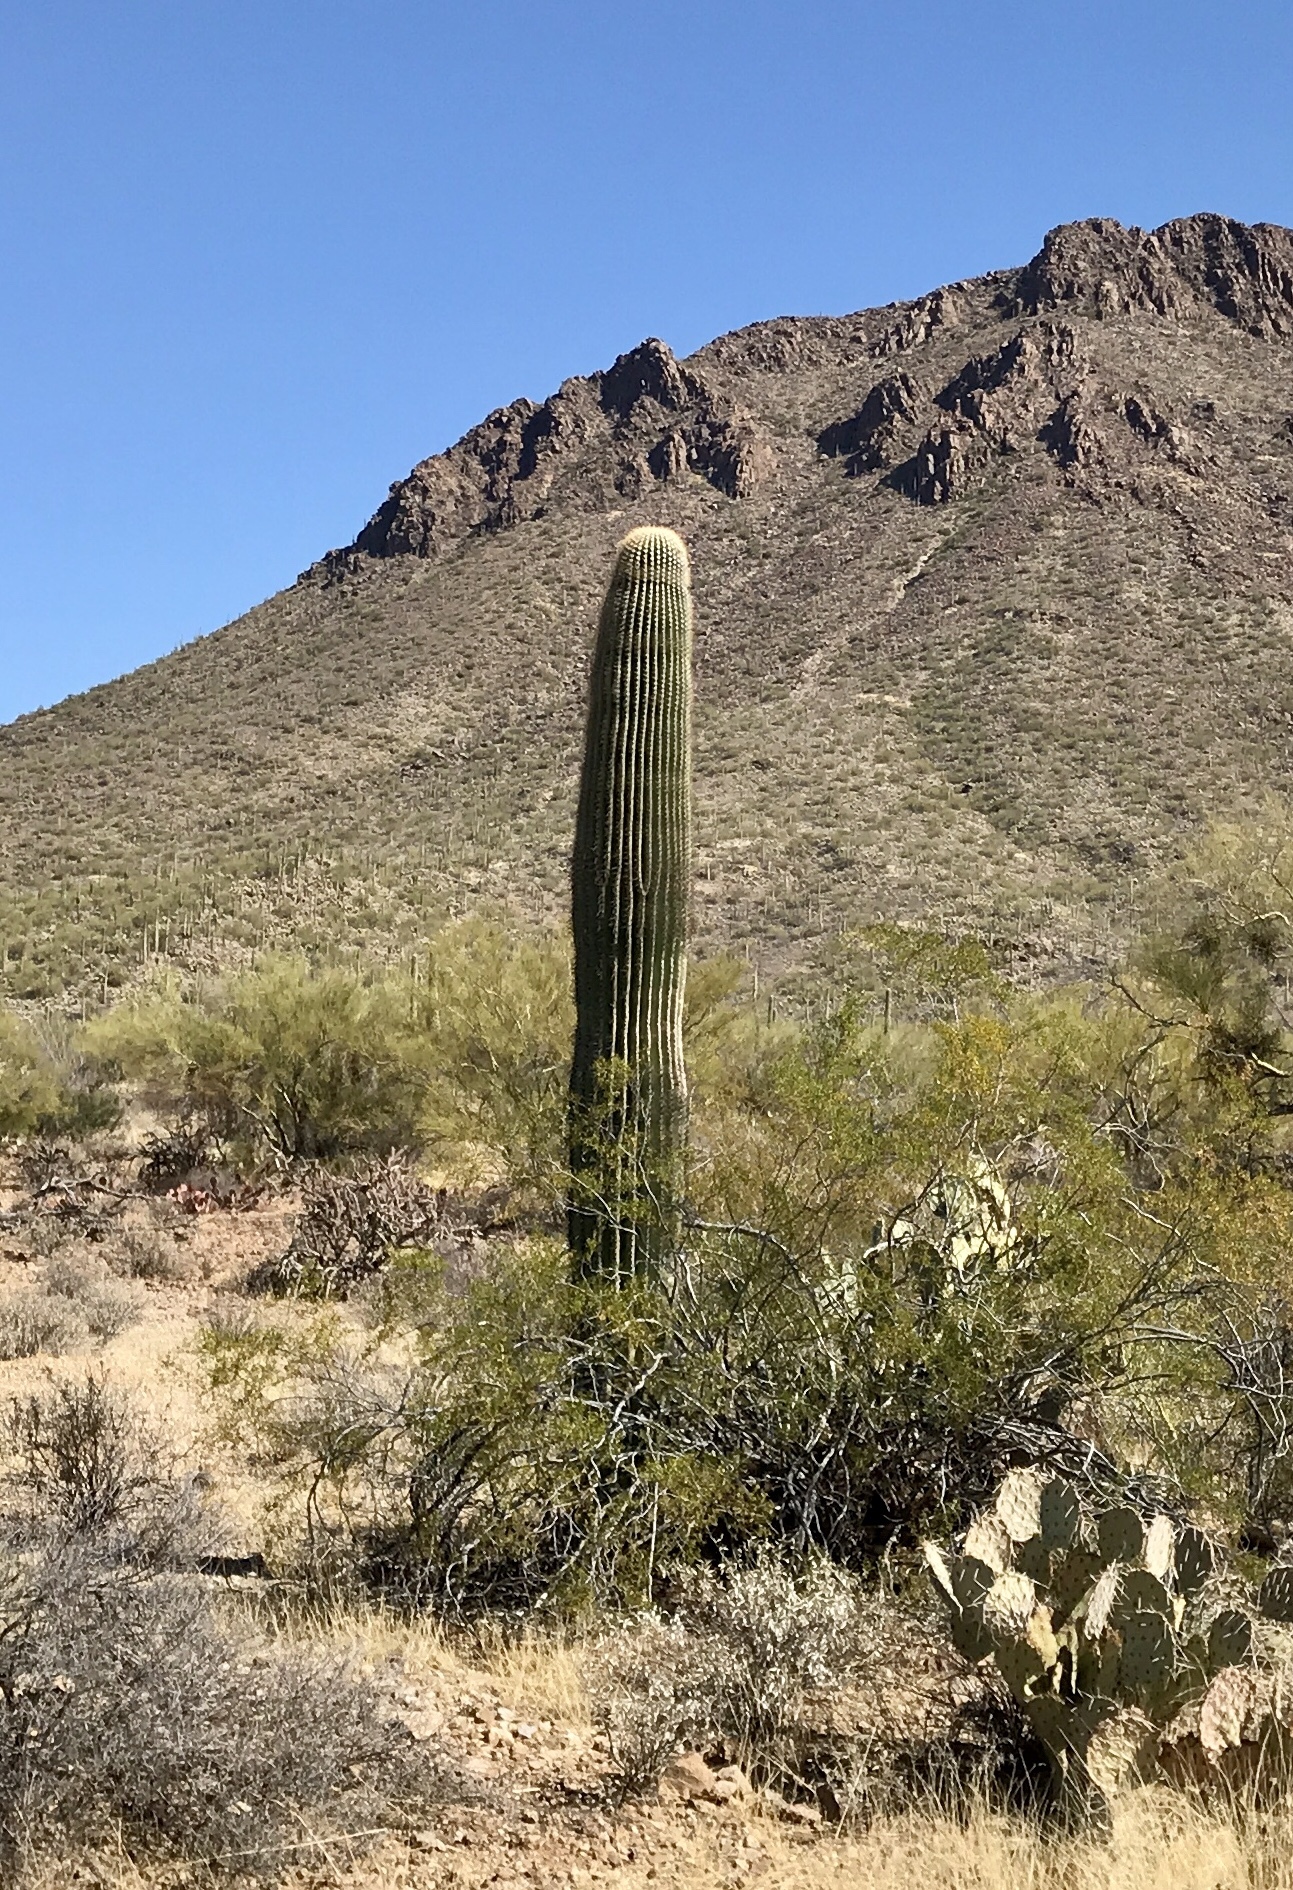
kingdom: Plantae
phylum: Tracheophyta
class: Magnoliopsida
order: Caryophyllales
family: Cactaceae
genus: Carnegiea
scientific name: Carnegiea gigantea
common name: Saguaro
